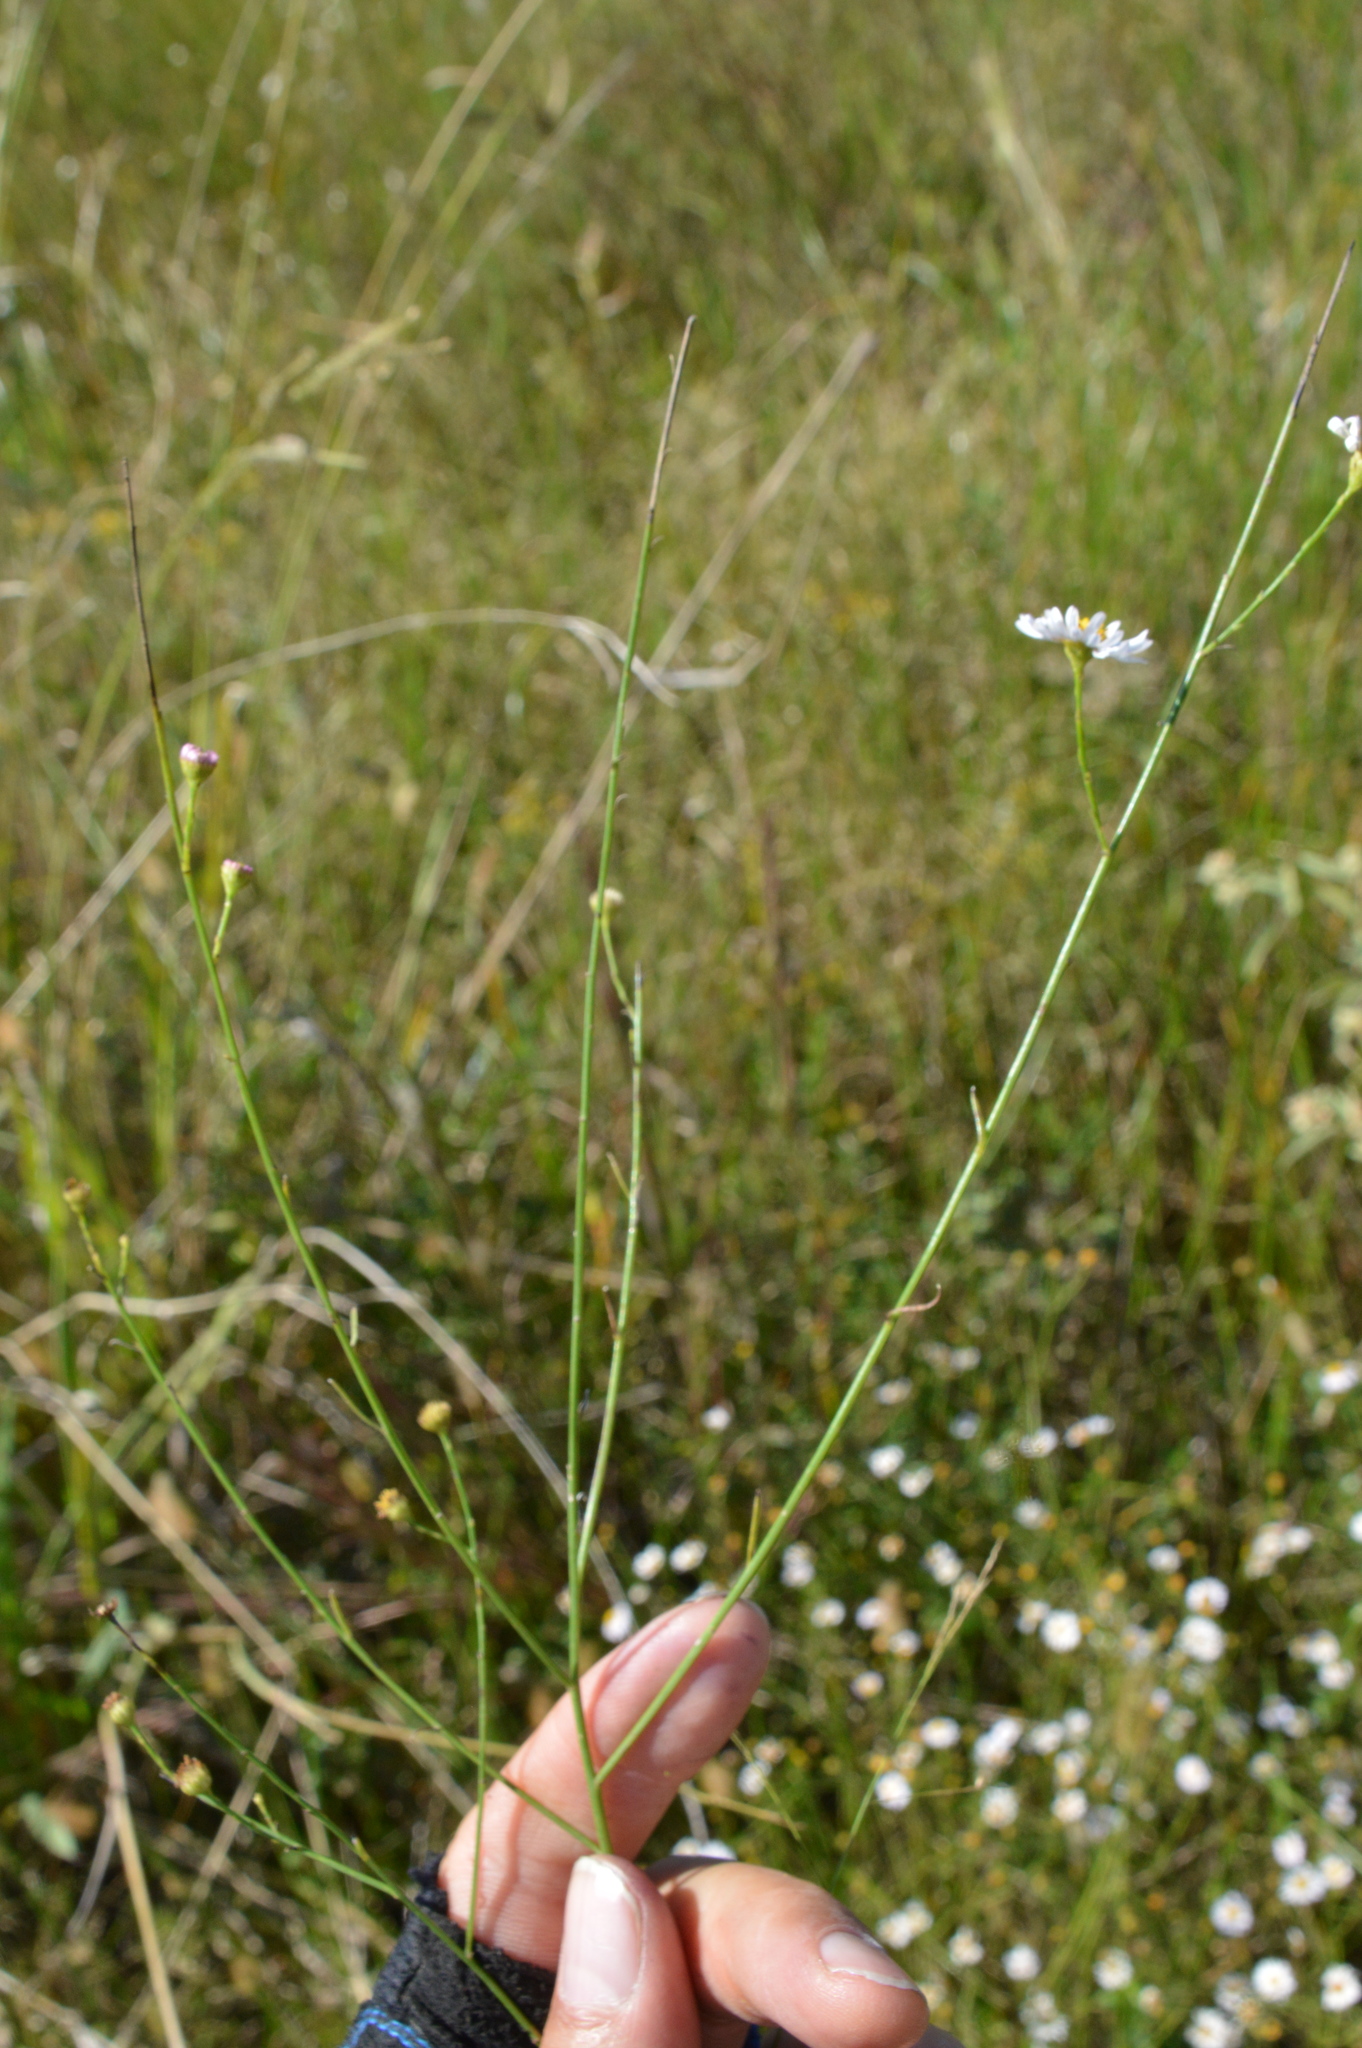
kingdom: Plantae
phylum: Tracheophyta
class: Magnoliopsida
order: Asterales
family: Asteraceae
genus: Boltonia
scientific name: Boltonia diffusa
